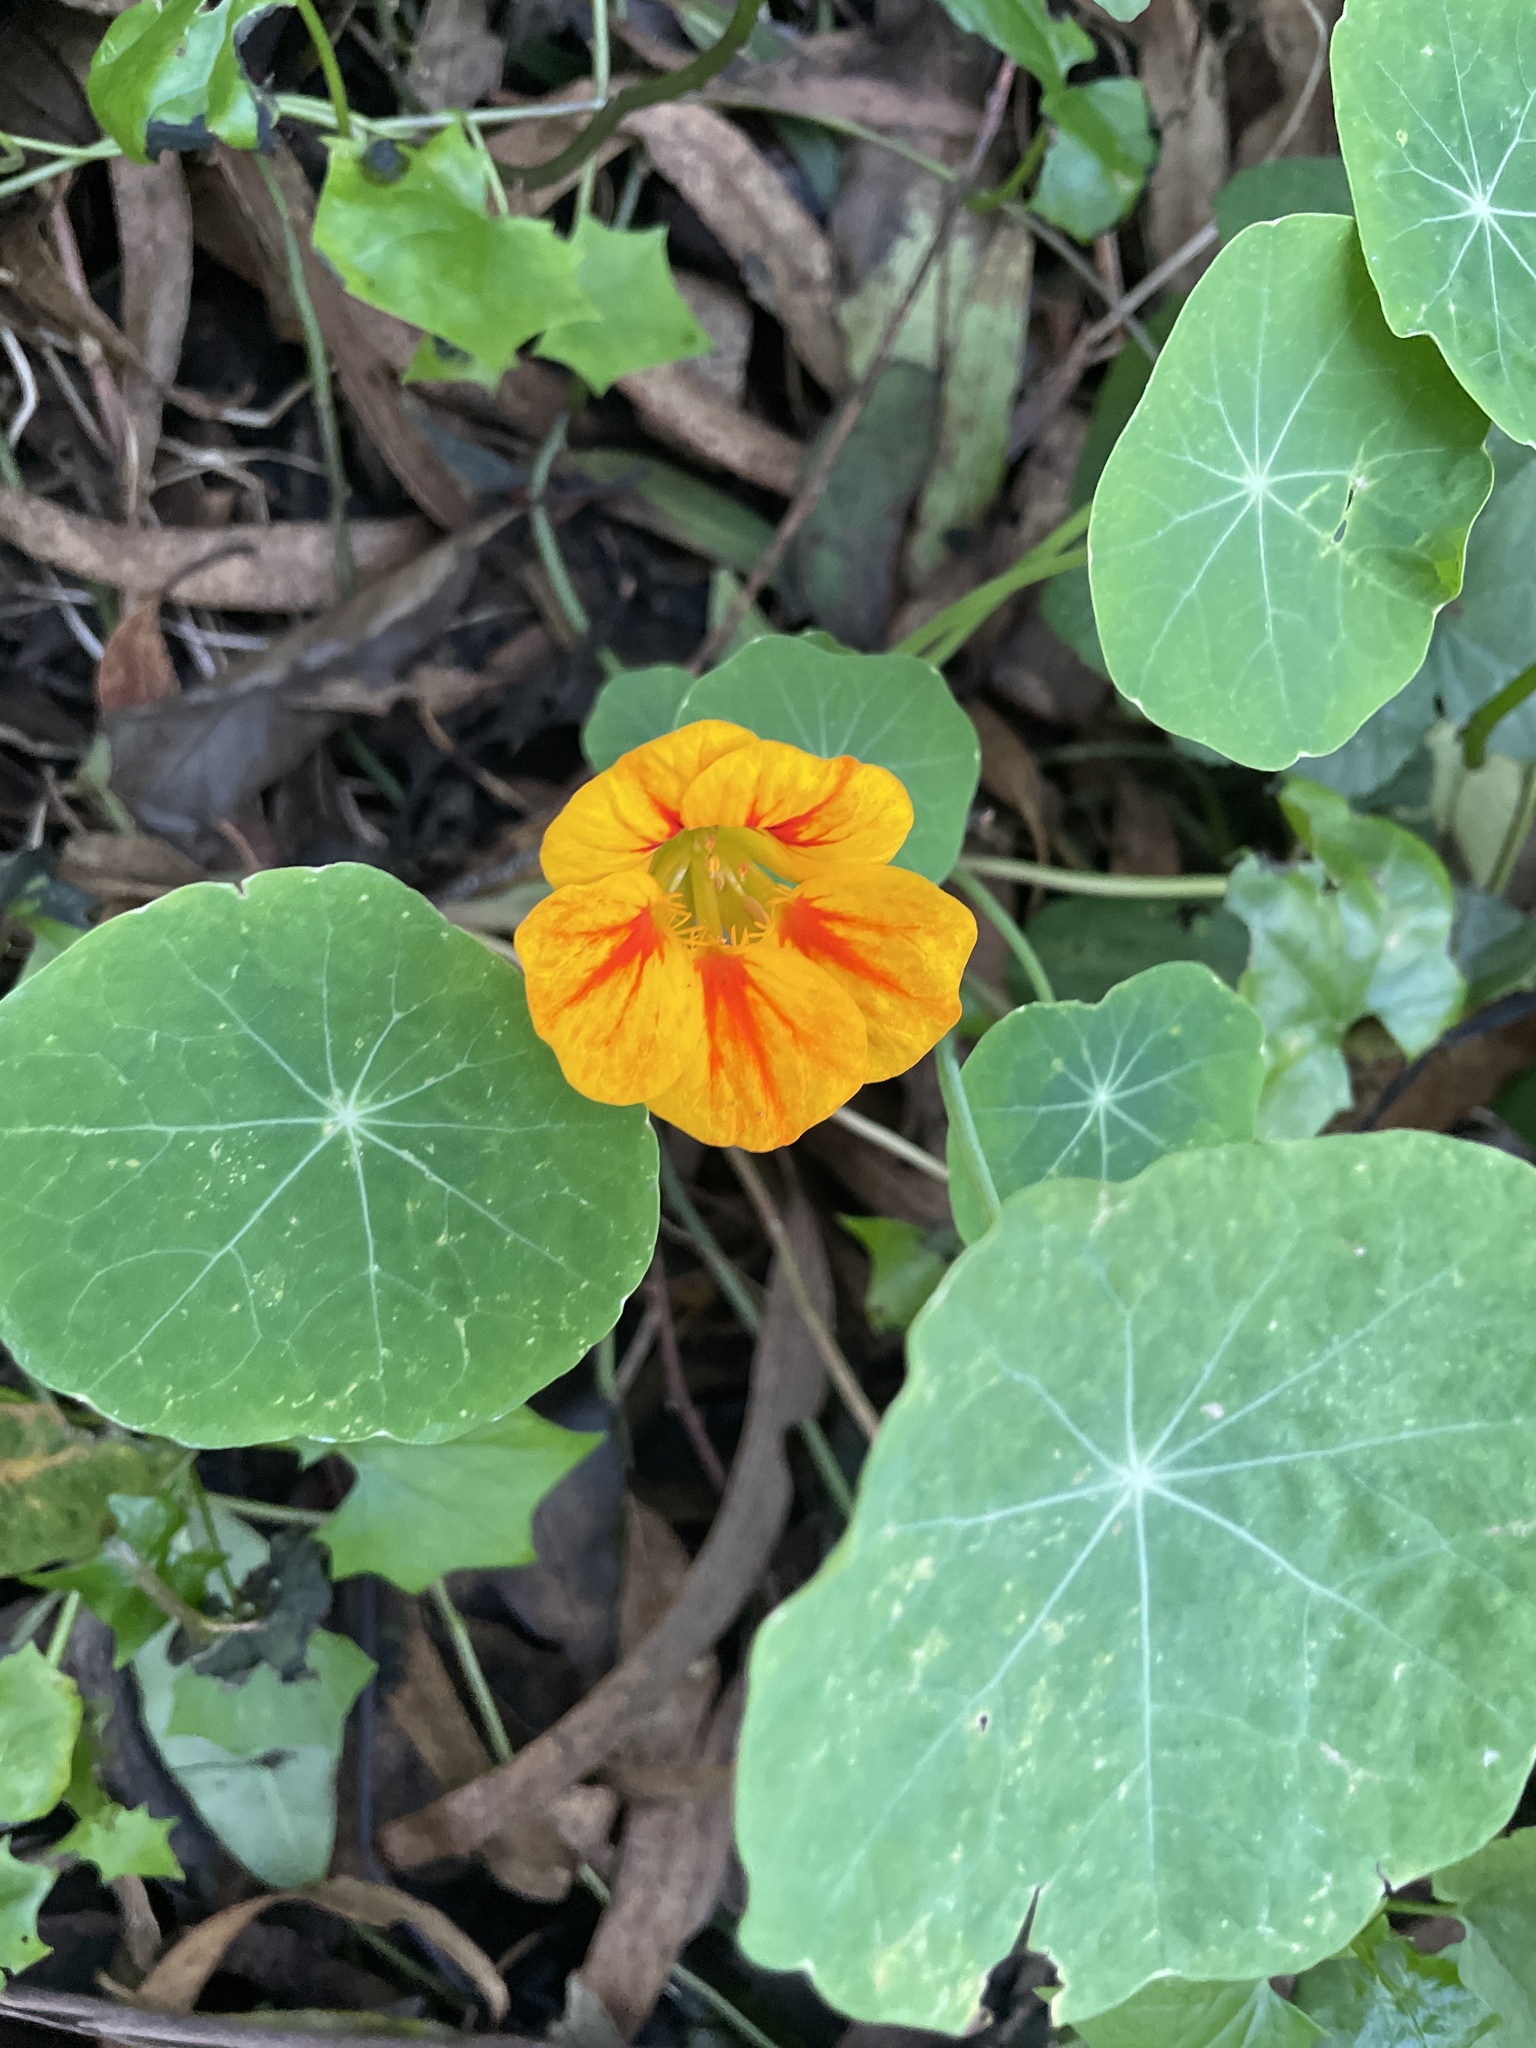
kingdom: Plantae
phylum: Tracheophyta
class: Magnoliopsida
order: Brassicales
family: Tropaeolaceae
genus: Tropaeolum
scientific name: Tropaeolum majus
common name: Nasturtium
